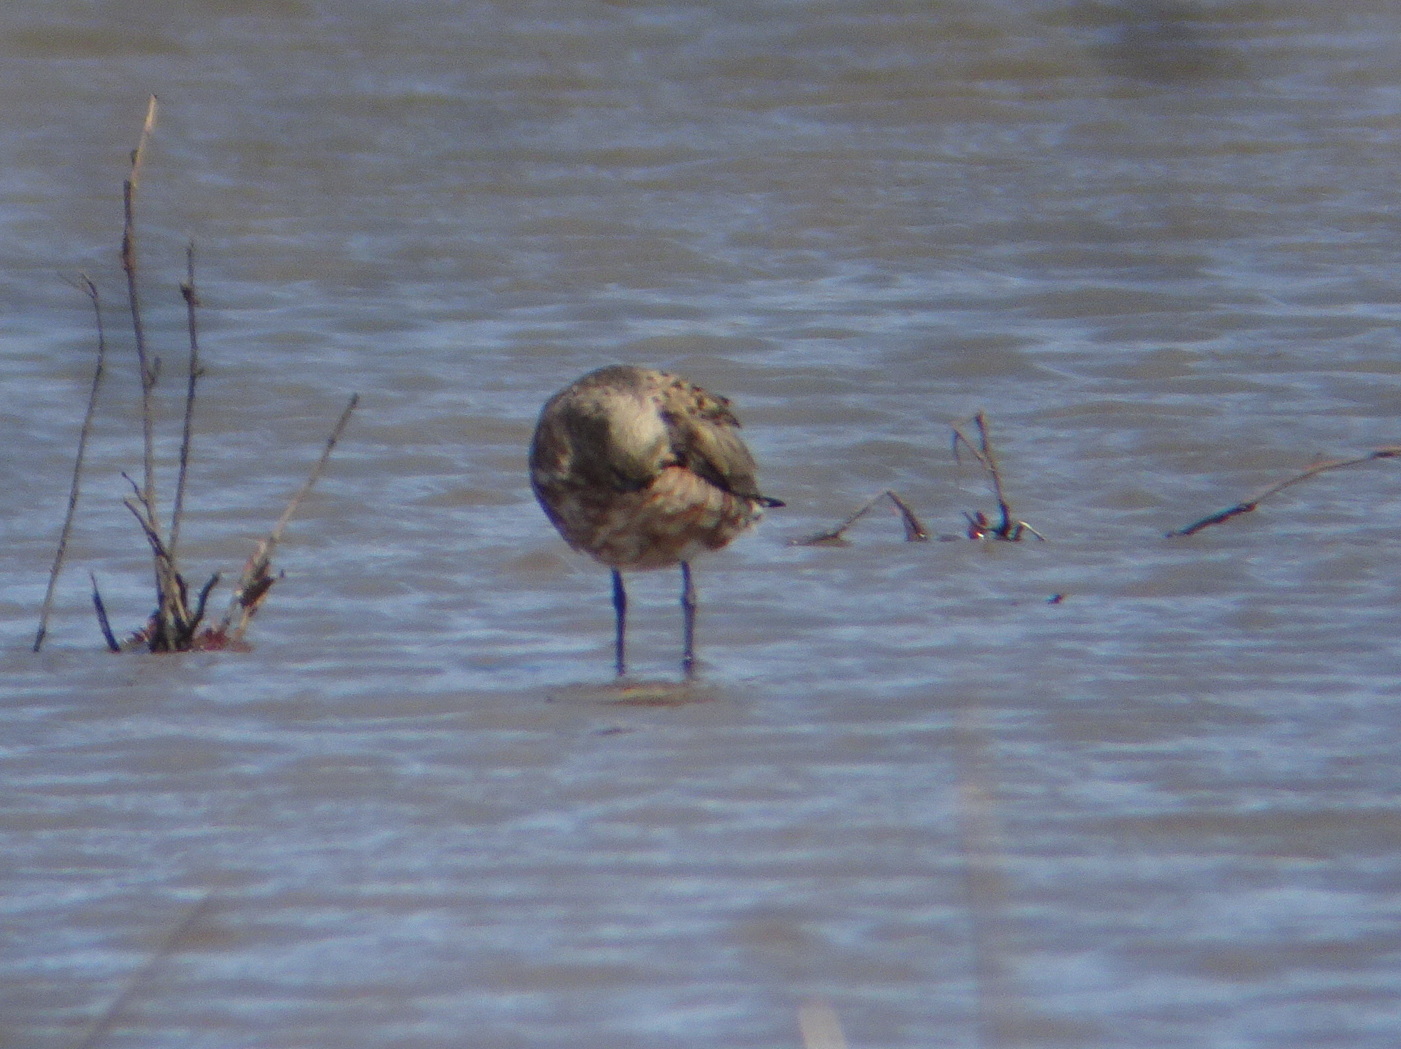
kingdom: Animalia
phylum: Chordata
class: Aves
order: Charadriiformes
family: Scolopacidae
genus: Limosa
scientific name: Limosa haemastica
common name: Hudsonian godwit
